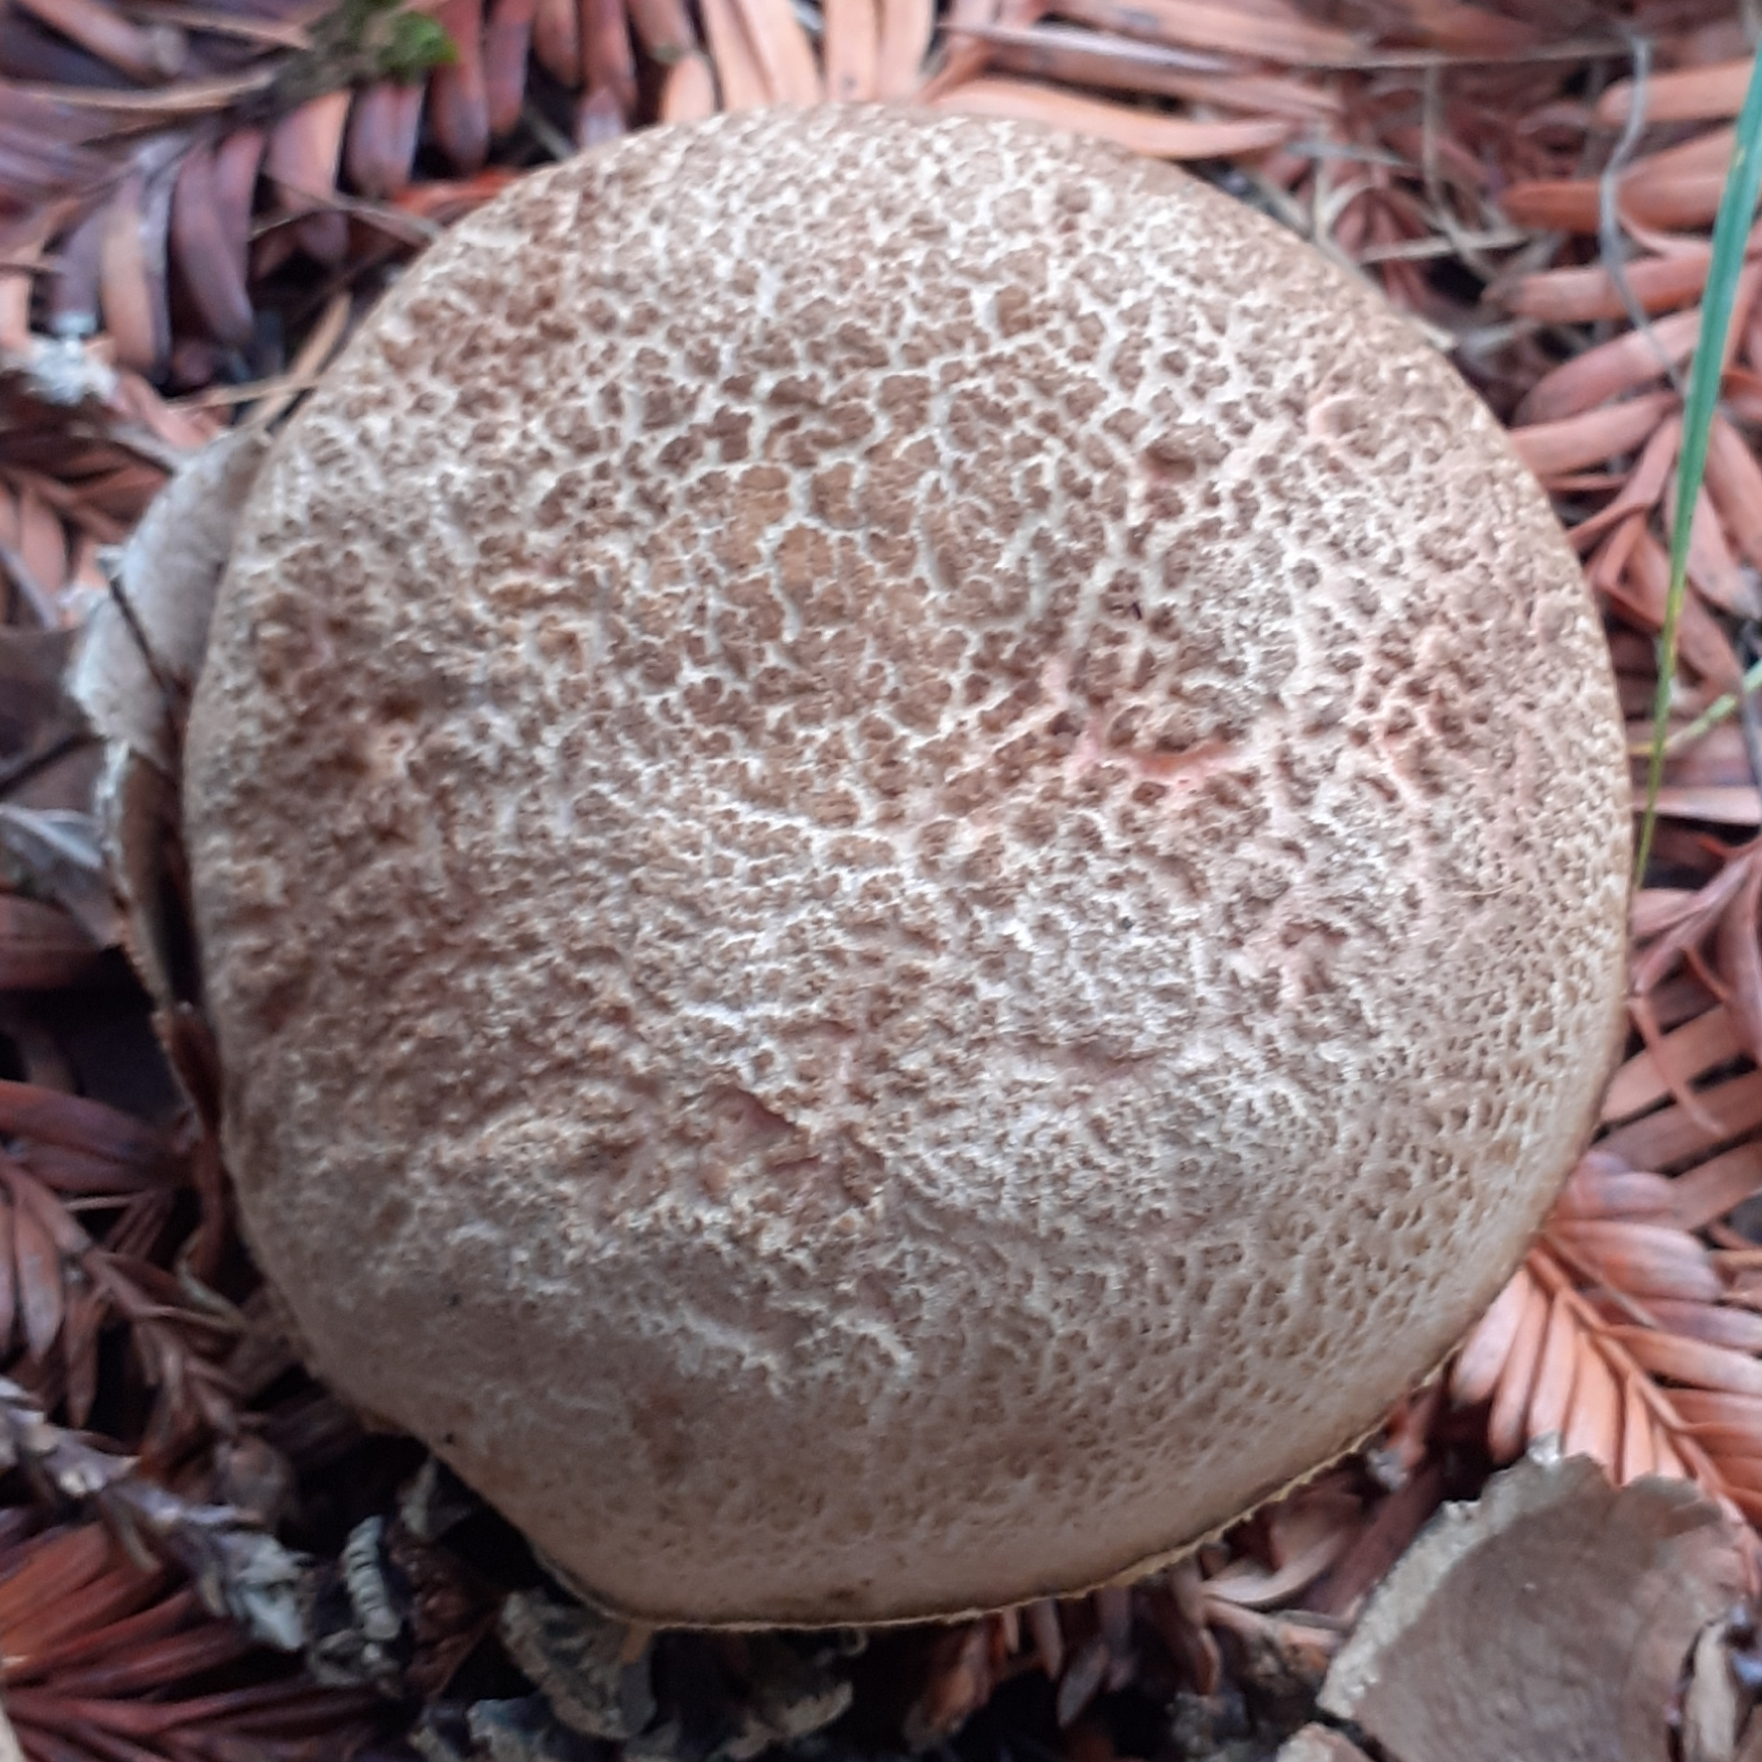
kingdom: Fungi
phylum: Basidiomycota
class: Agaricomycetes
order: Boletales
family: Boletaceae
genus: Xerocomellus
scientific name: Xerocomellus chrysenteron
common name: Red-cracking bolete
